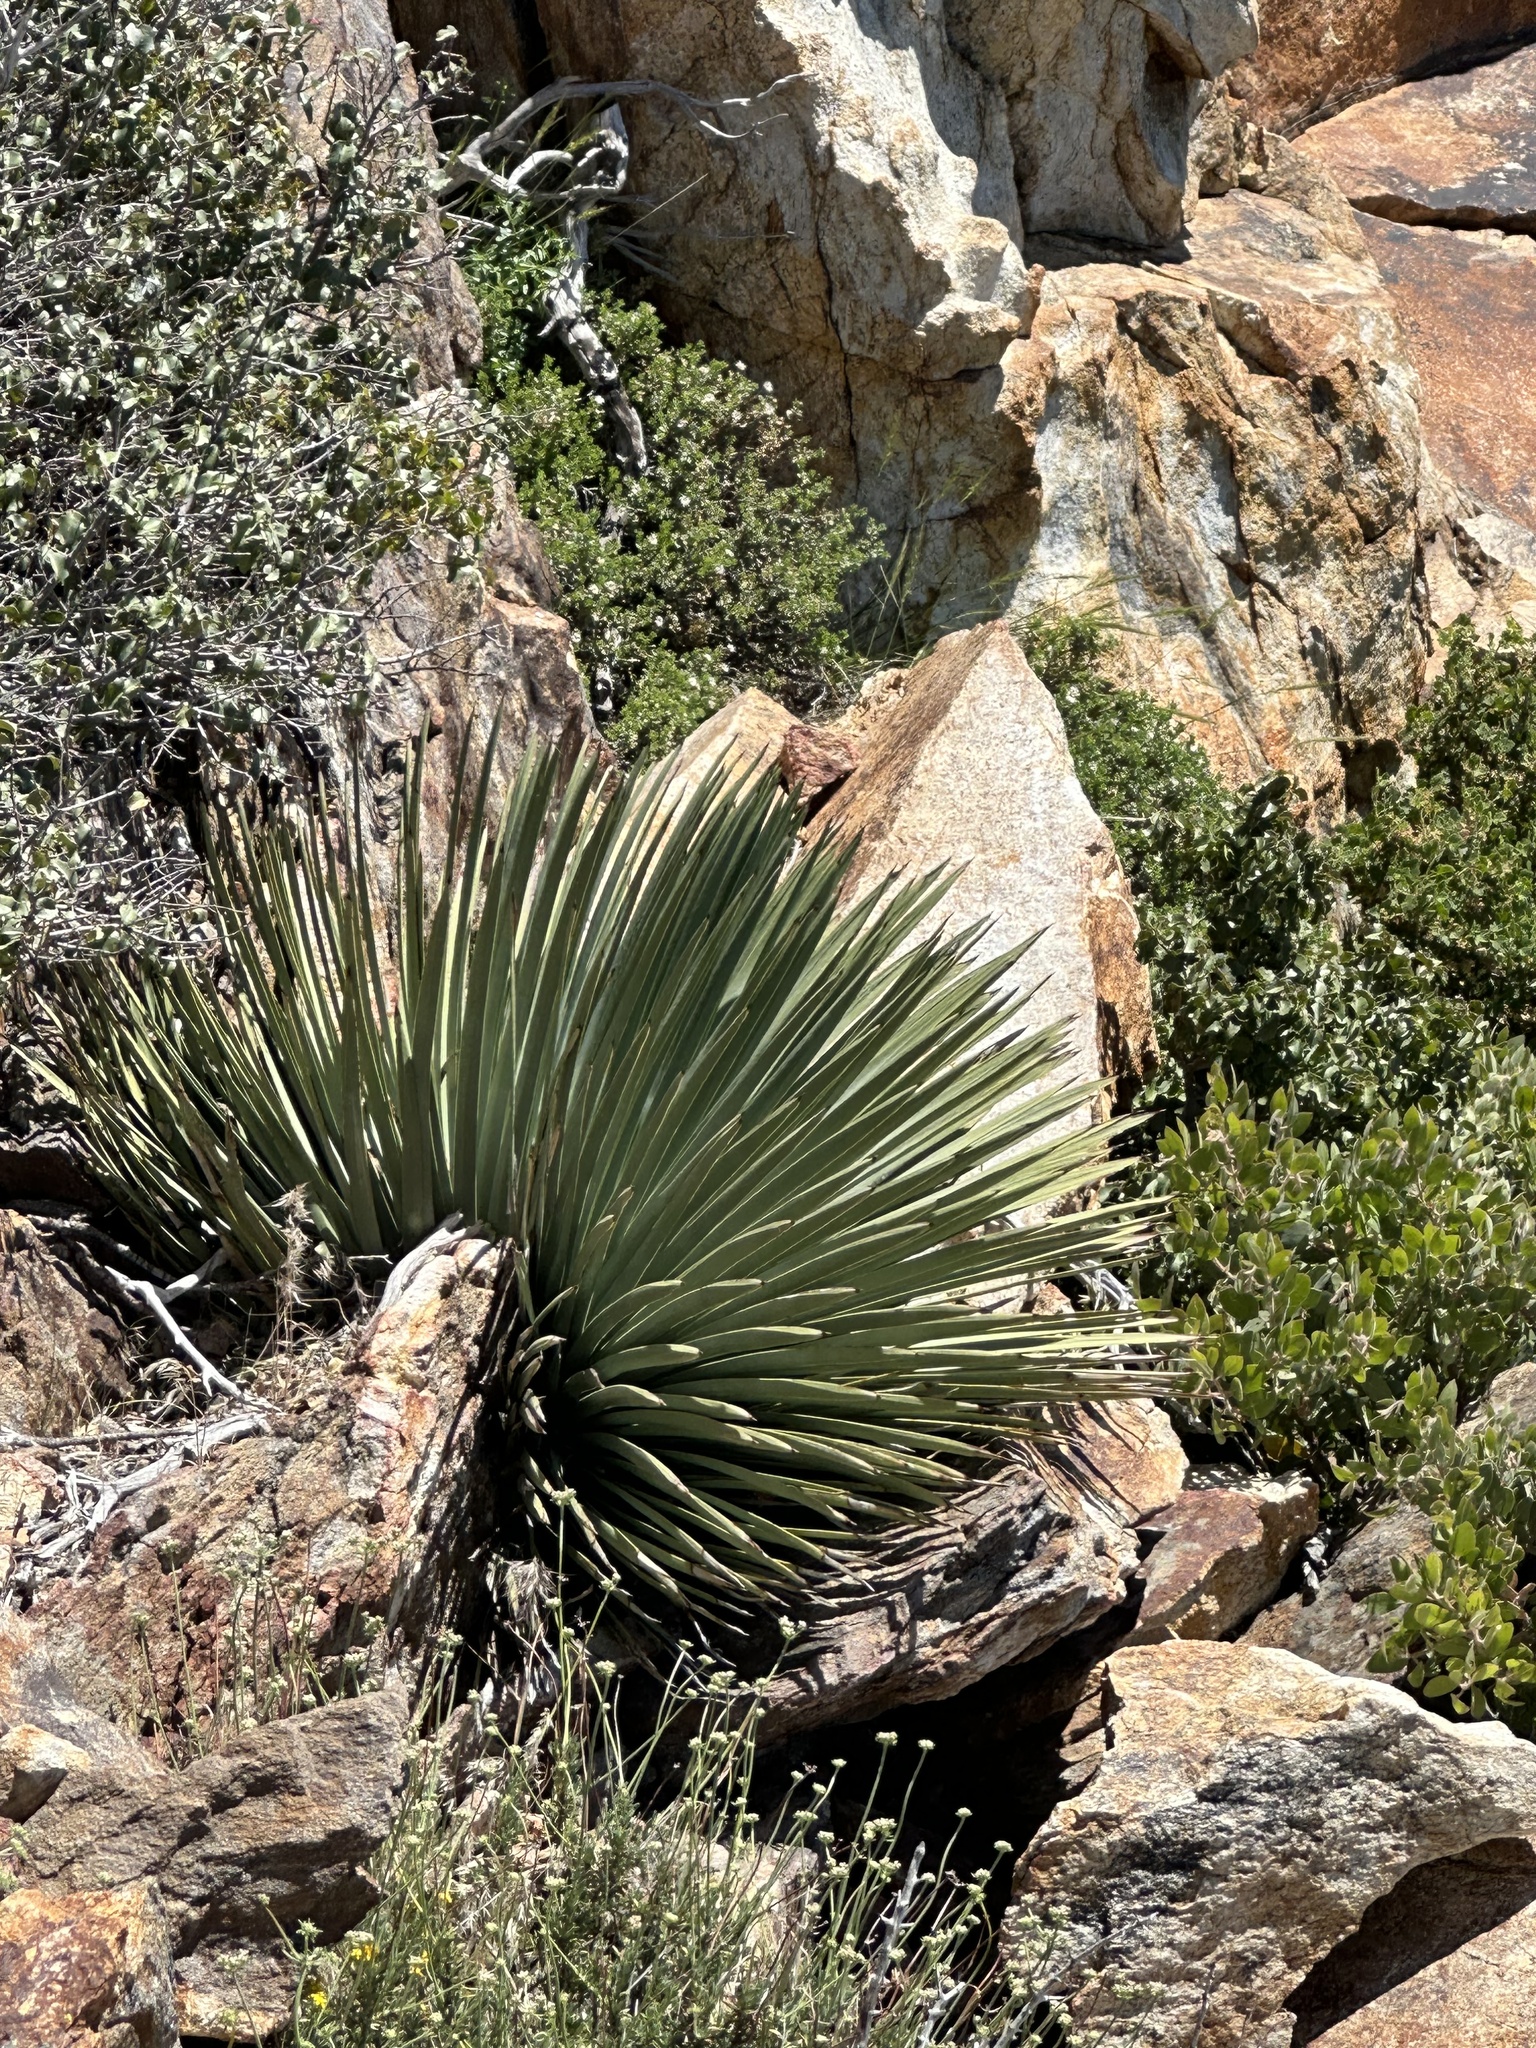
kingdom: Plantae
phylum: Tracheophyta
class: Liliopsida
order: Asparagales
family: Asparagaceae
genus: Hesperoyucca
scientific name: Hesperoyucca whipplei
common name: Our lord's-candle
